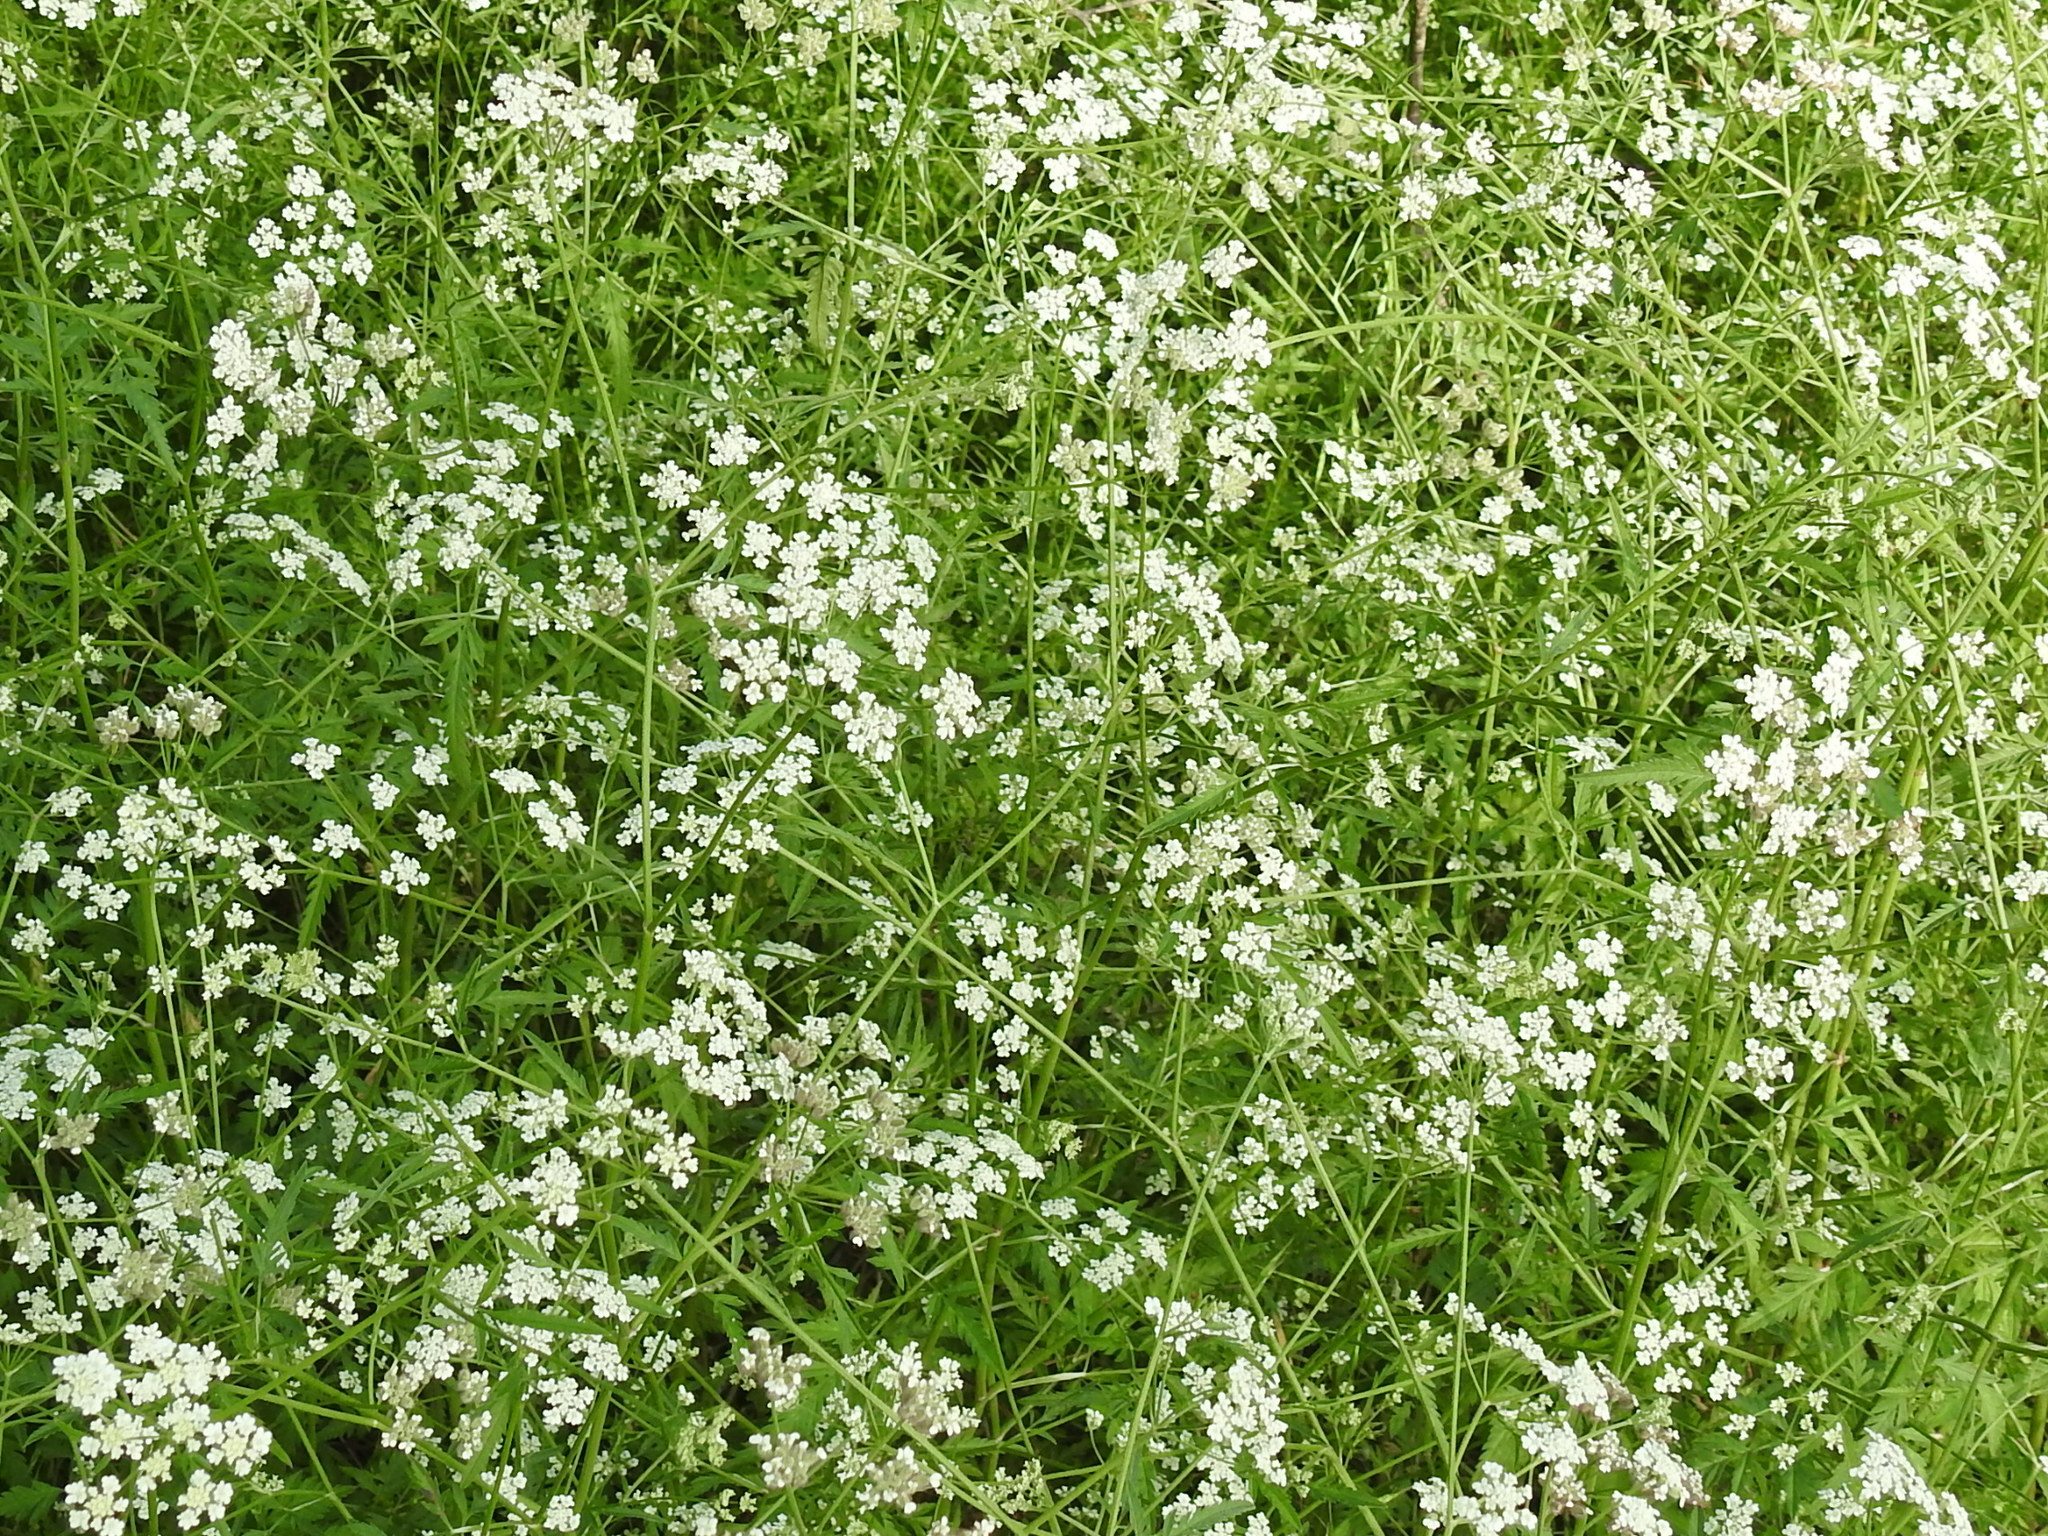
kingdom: Plantae
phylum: Tracheophyta
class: Magnoliopsida
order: Apiales
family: Apiaceae
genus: Torilis
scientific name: Torilis arvensis
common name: Spreading hedge-parsley
